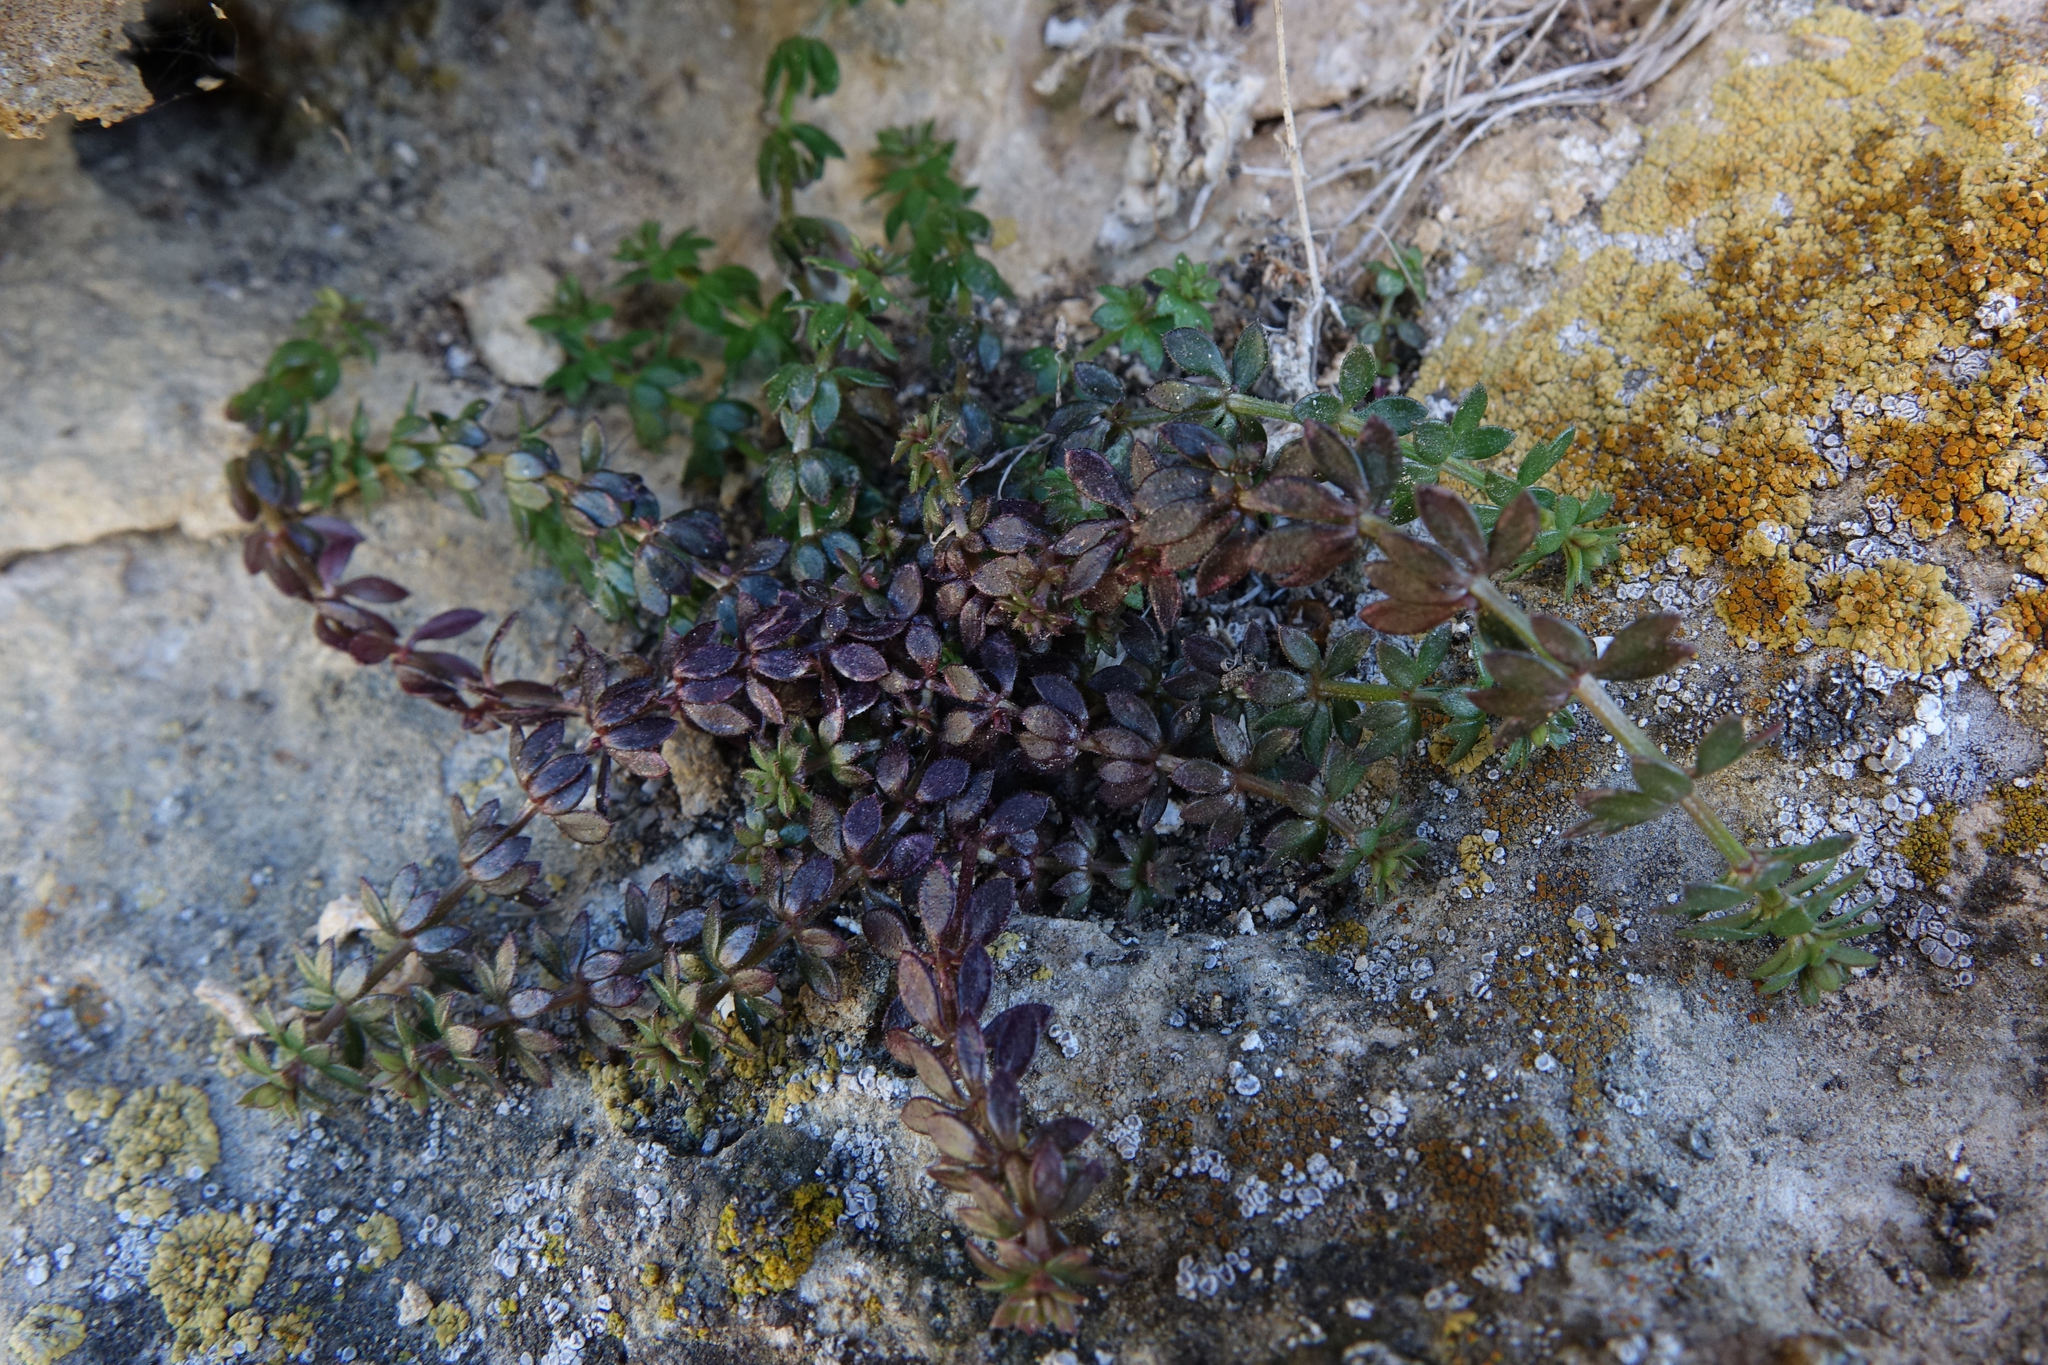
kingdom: Plantae
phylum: Tracheophyta
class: Magnoliopsida
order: Gentianales
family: Rubiaceae
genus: Sherardia
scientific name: Sherardia arvensis
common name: Field madder
